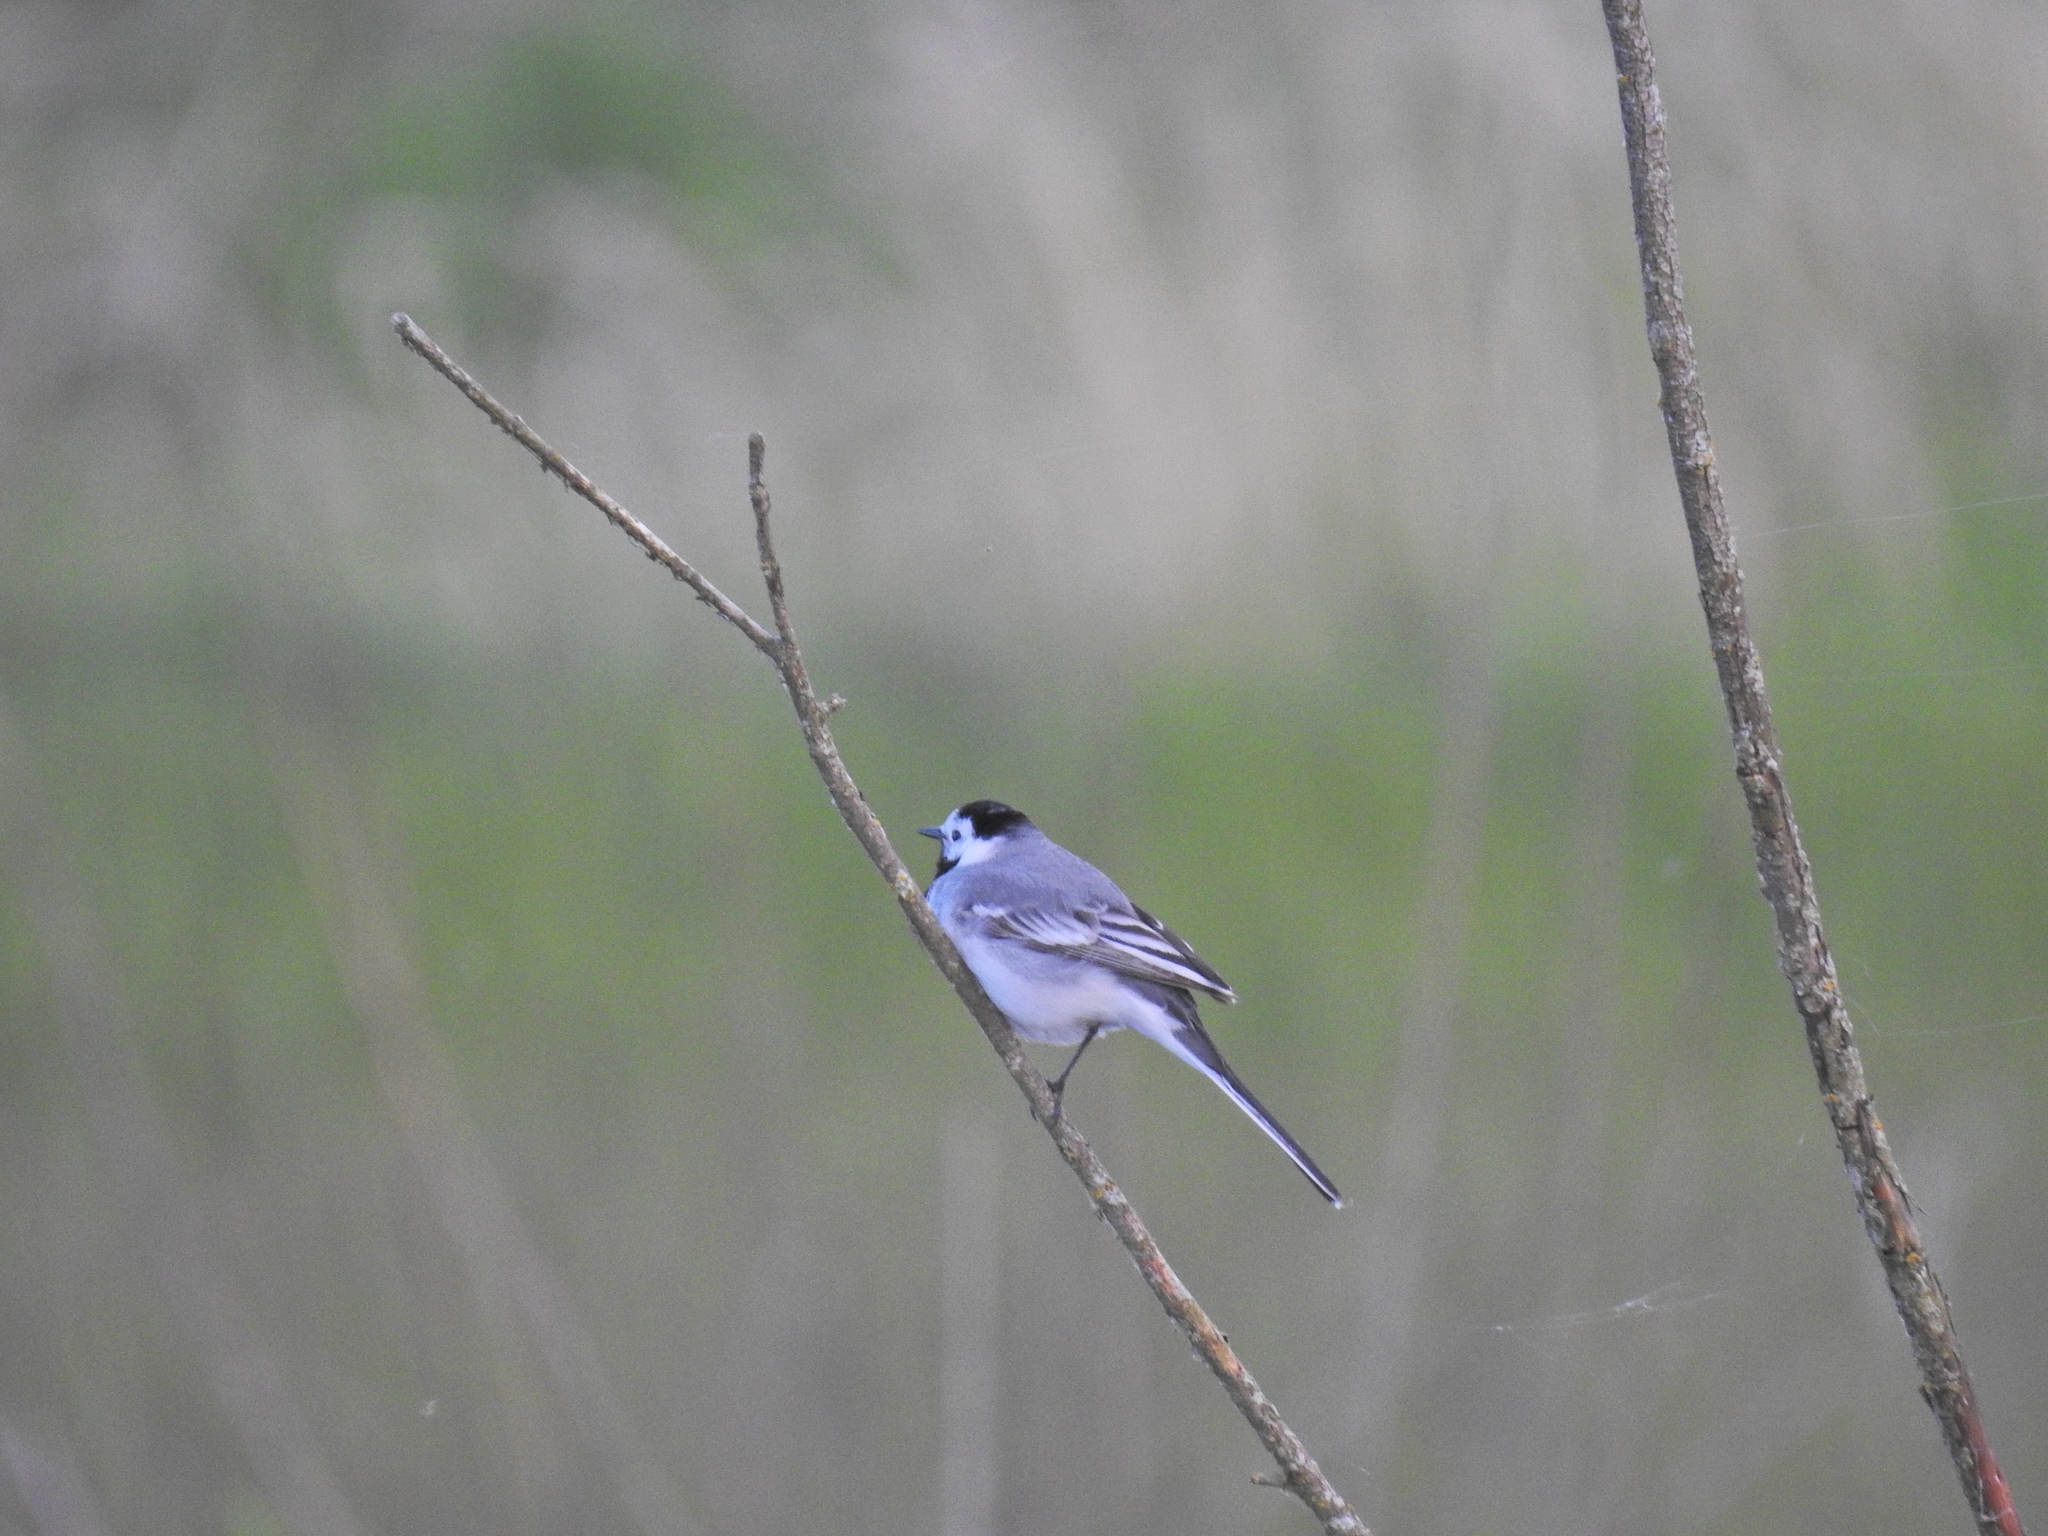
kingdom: Animalia
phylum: Chordata
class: Aves
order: Passeriformes
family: Motacillidae
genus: Motacilla
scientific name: Motacilla alba
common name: White wagtail
